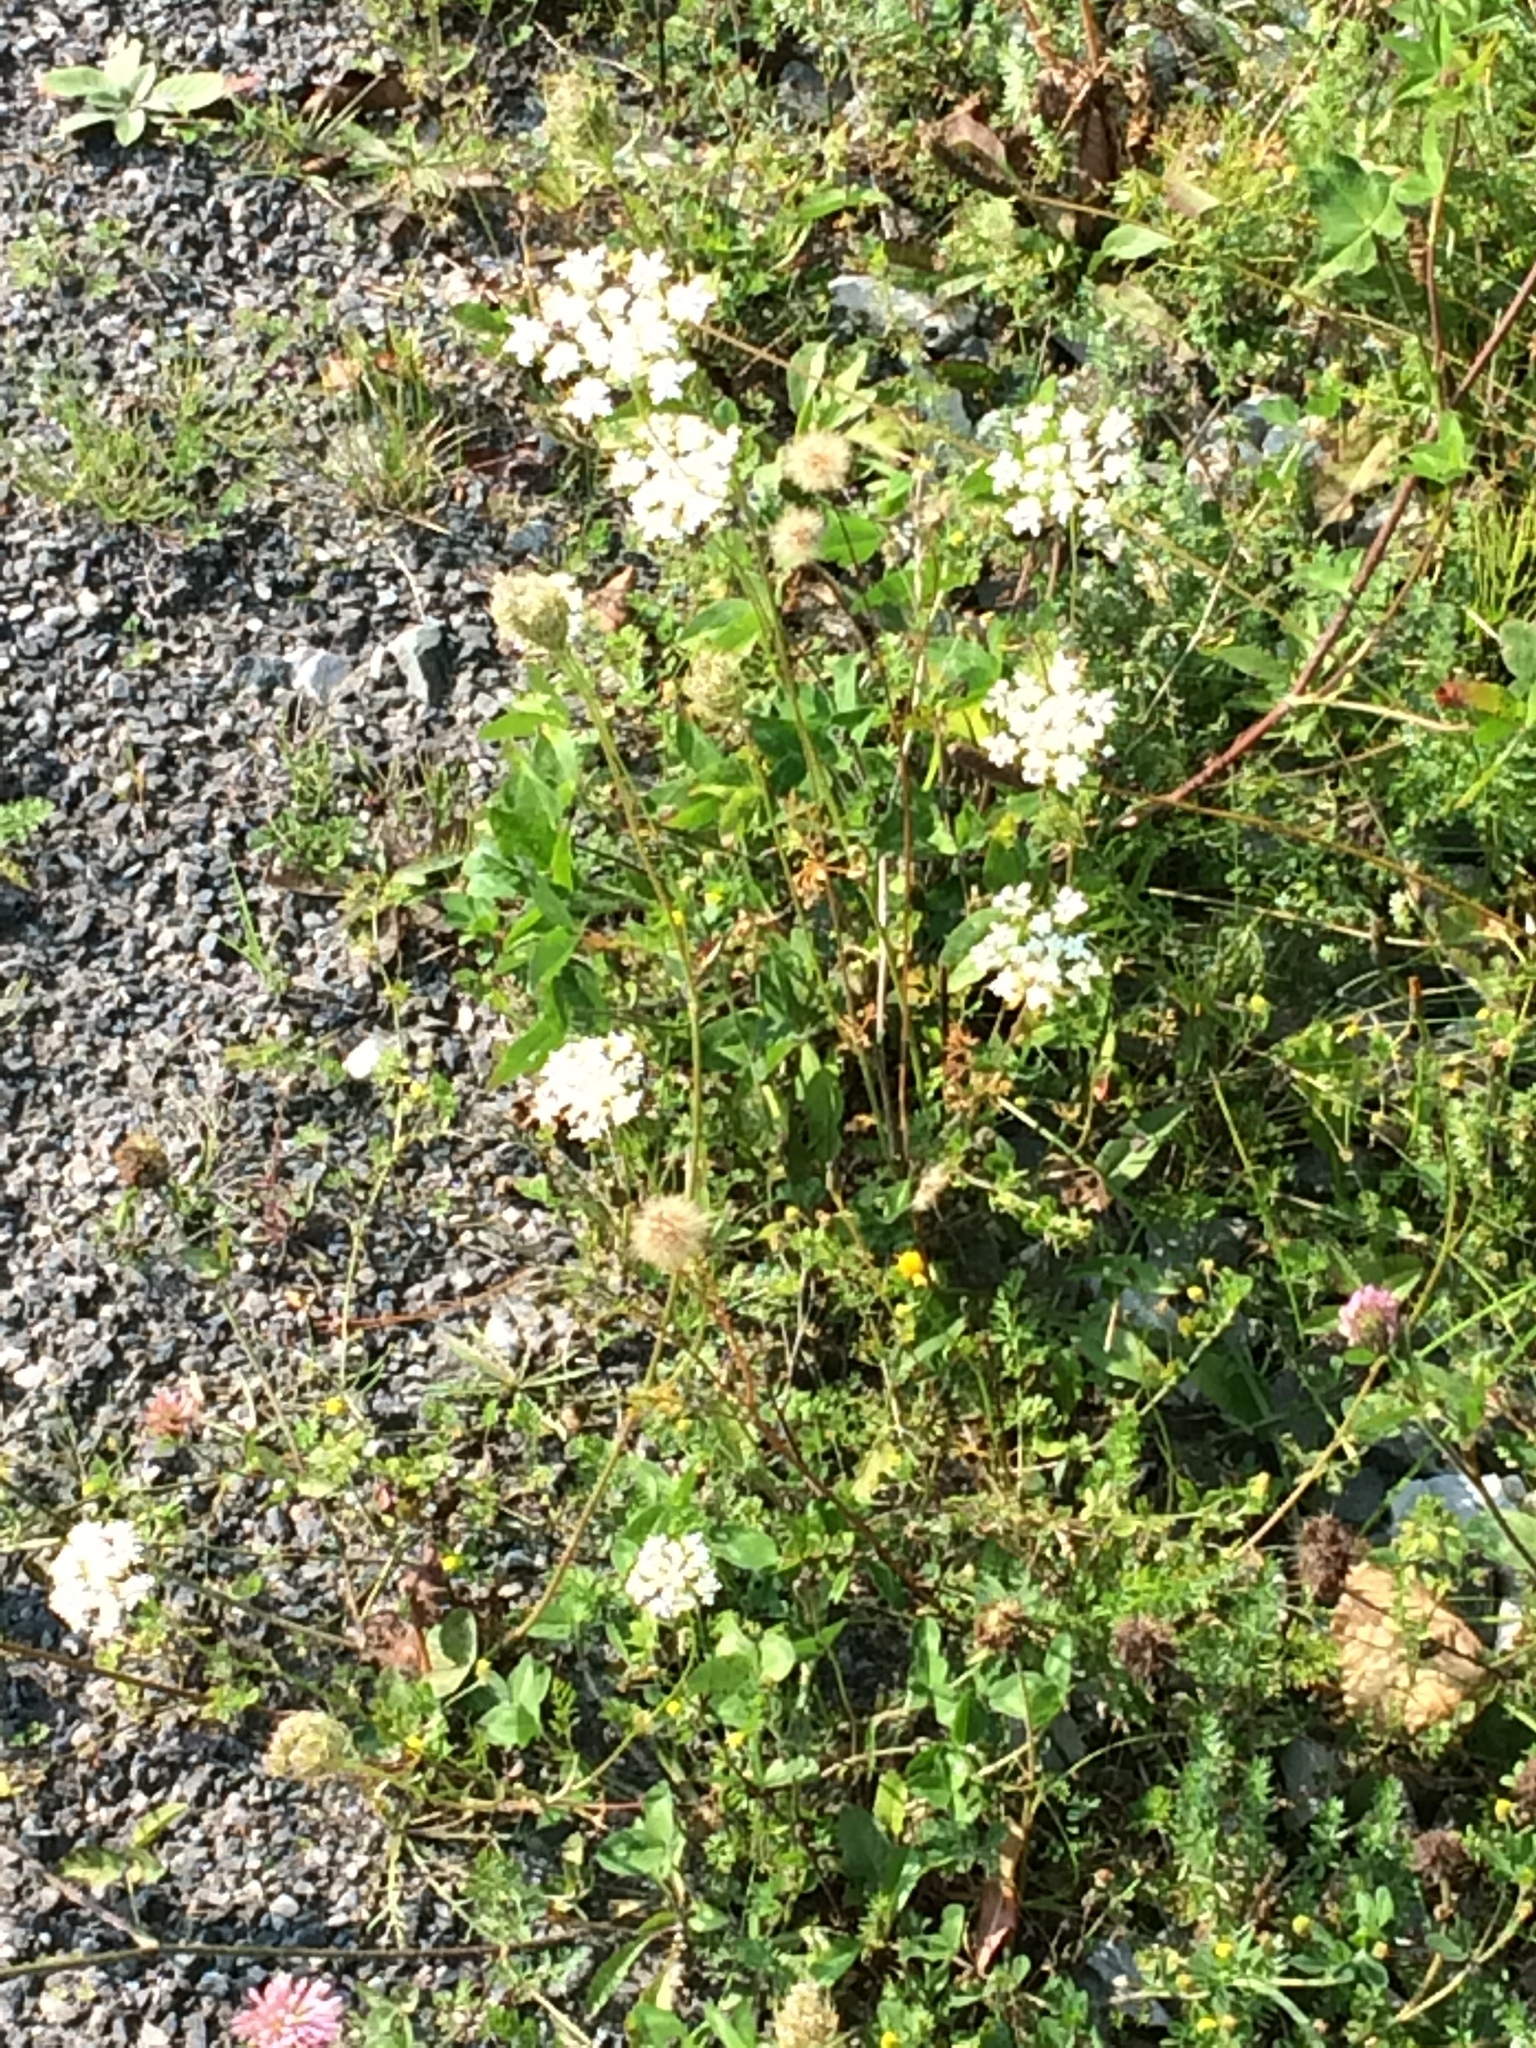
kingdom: Plantae
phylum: Tracheophyta
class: Magnoliopsida
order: Apiales
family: Apiaceae
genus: Daucus
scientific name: Daucus carota
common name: Wild carrot
